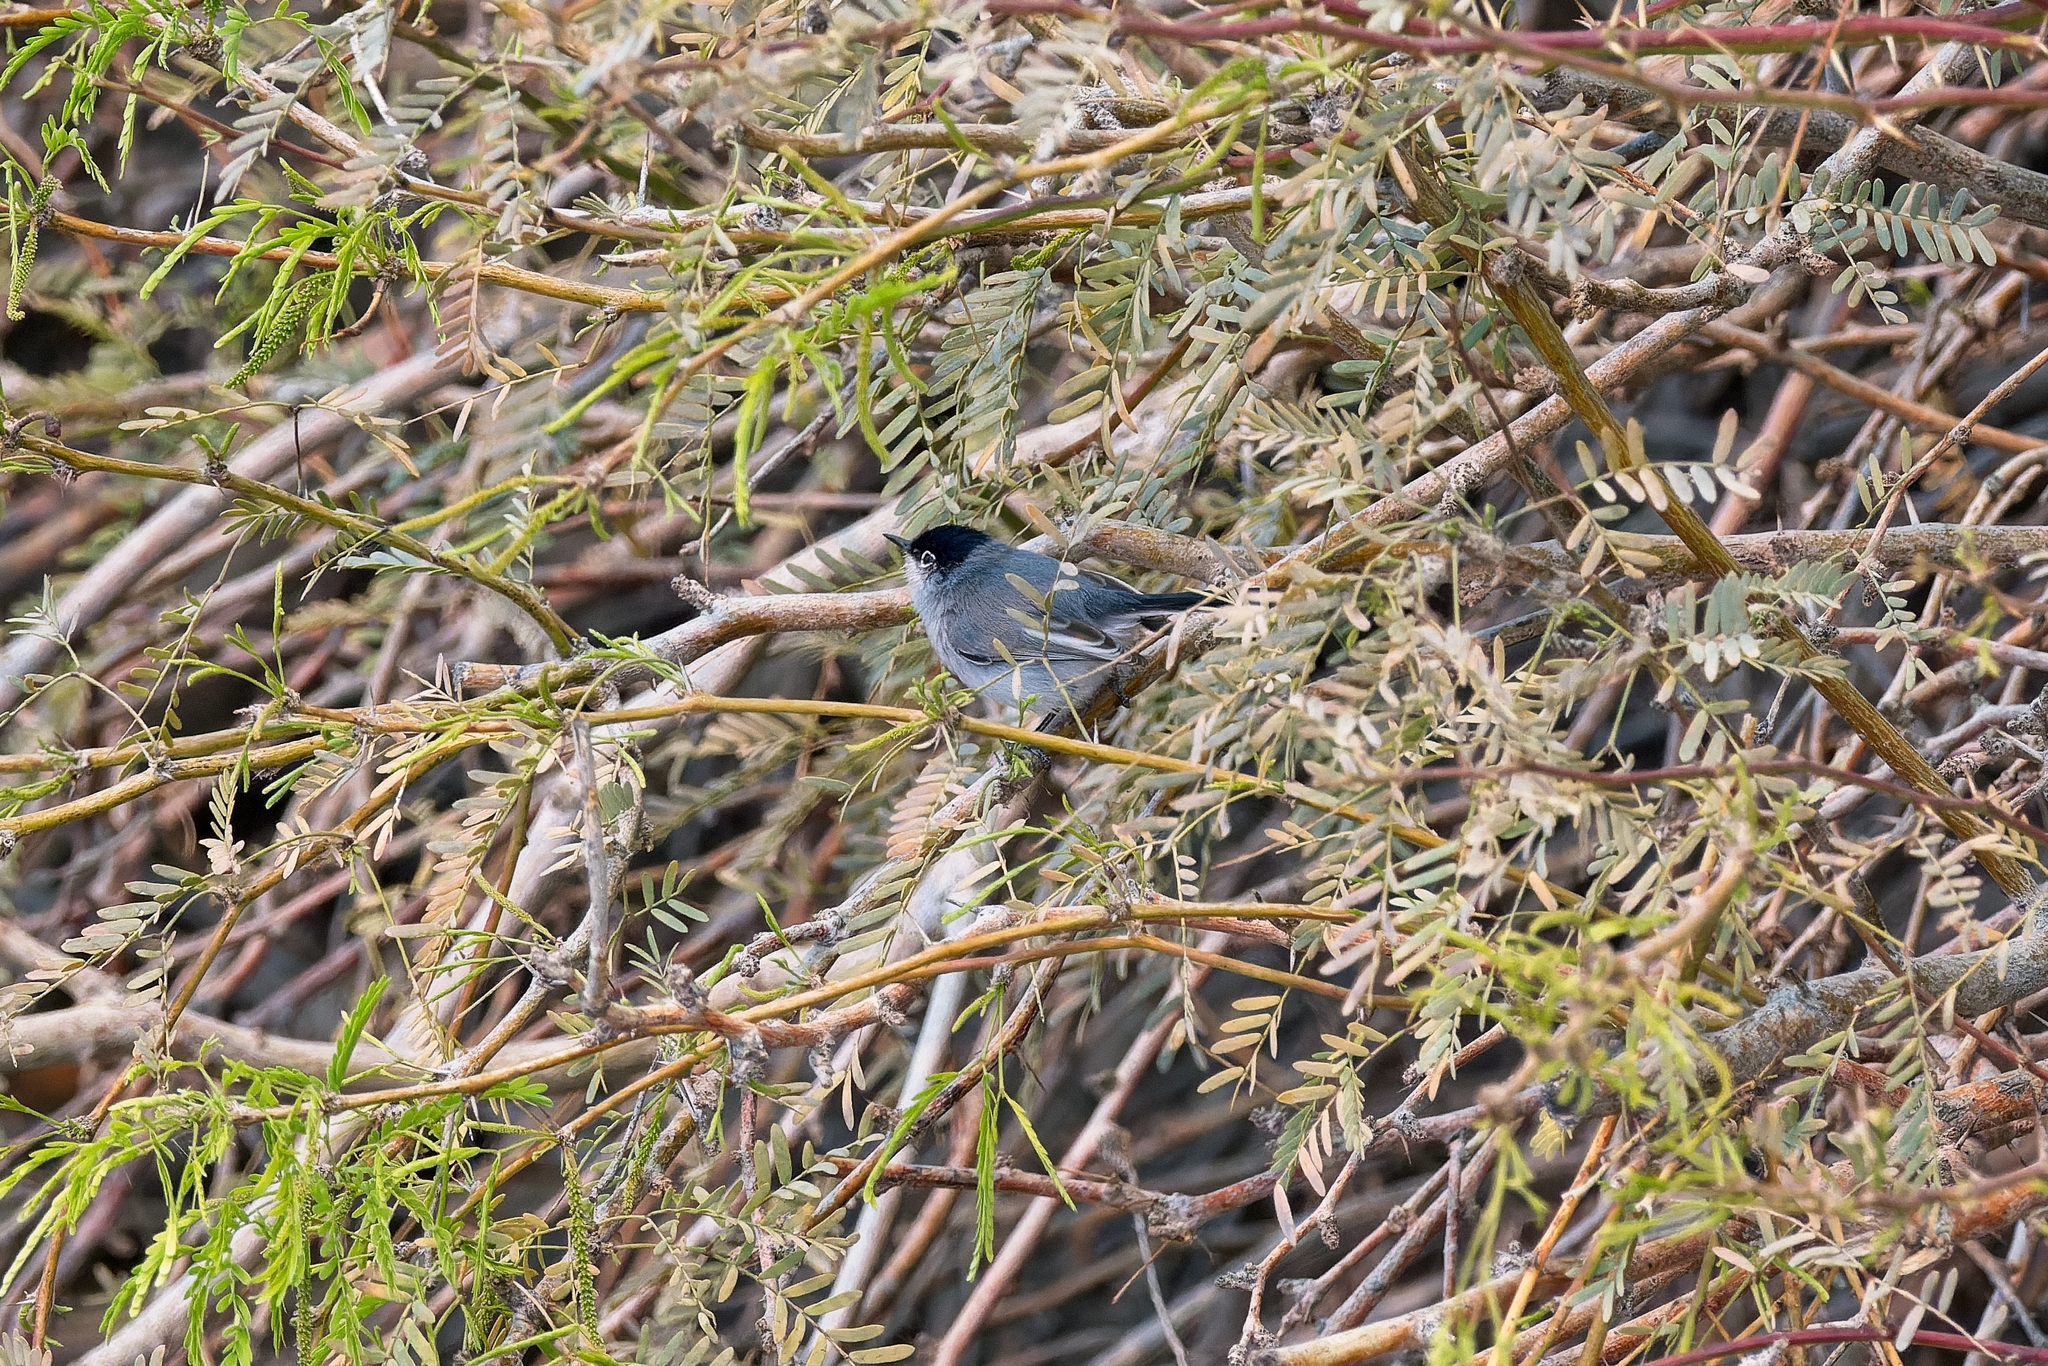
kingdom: Animalia
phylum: Chordata
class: Aves
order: Passeriformes
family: Polioptilidae
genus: Polioptila
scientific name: Polioptila melanura
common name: Black-tailed gnatcatcher
